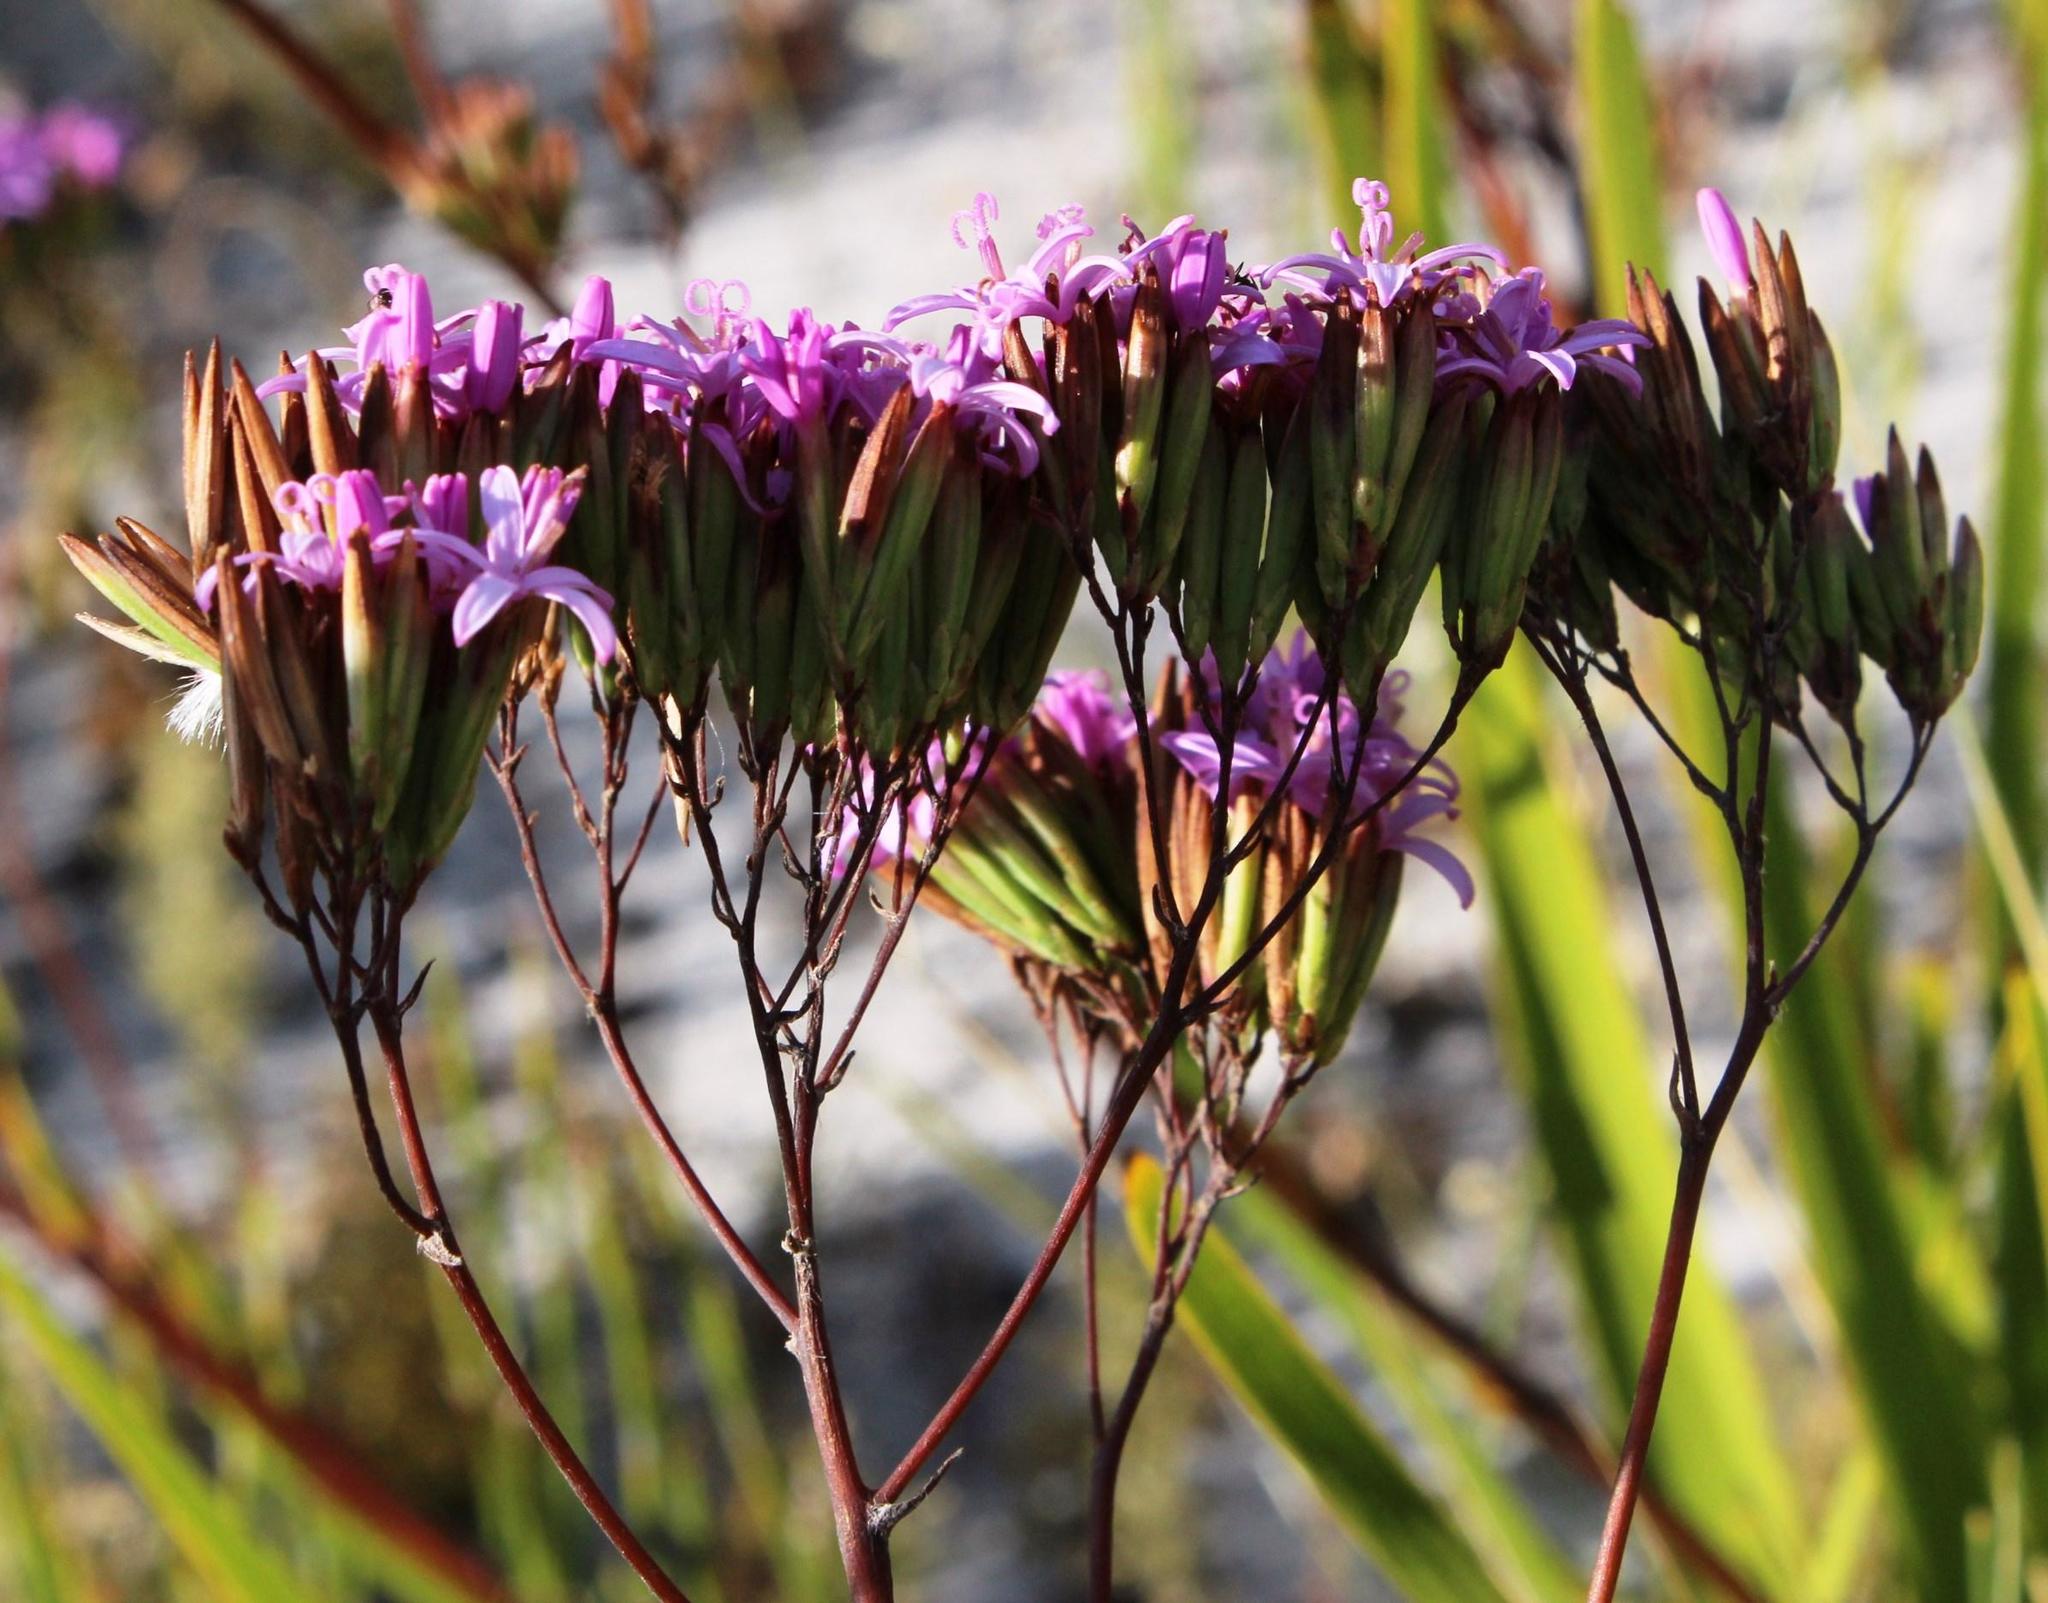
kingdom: Plantae
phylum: Tracheophyta
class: Magnoliopsida
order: Asterales
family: Asteraceae
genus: Corymbium
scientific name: Corymbium glabrum
